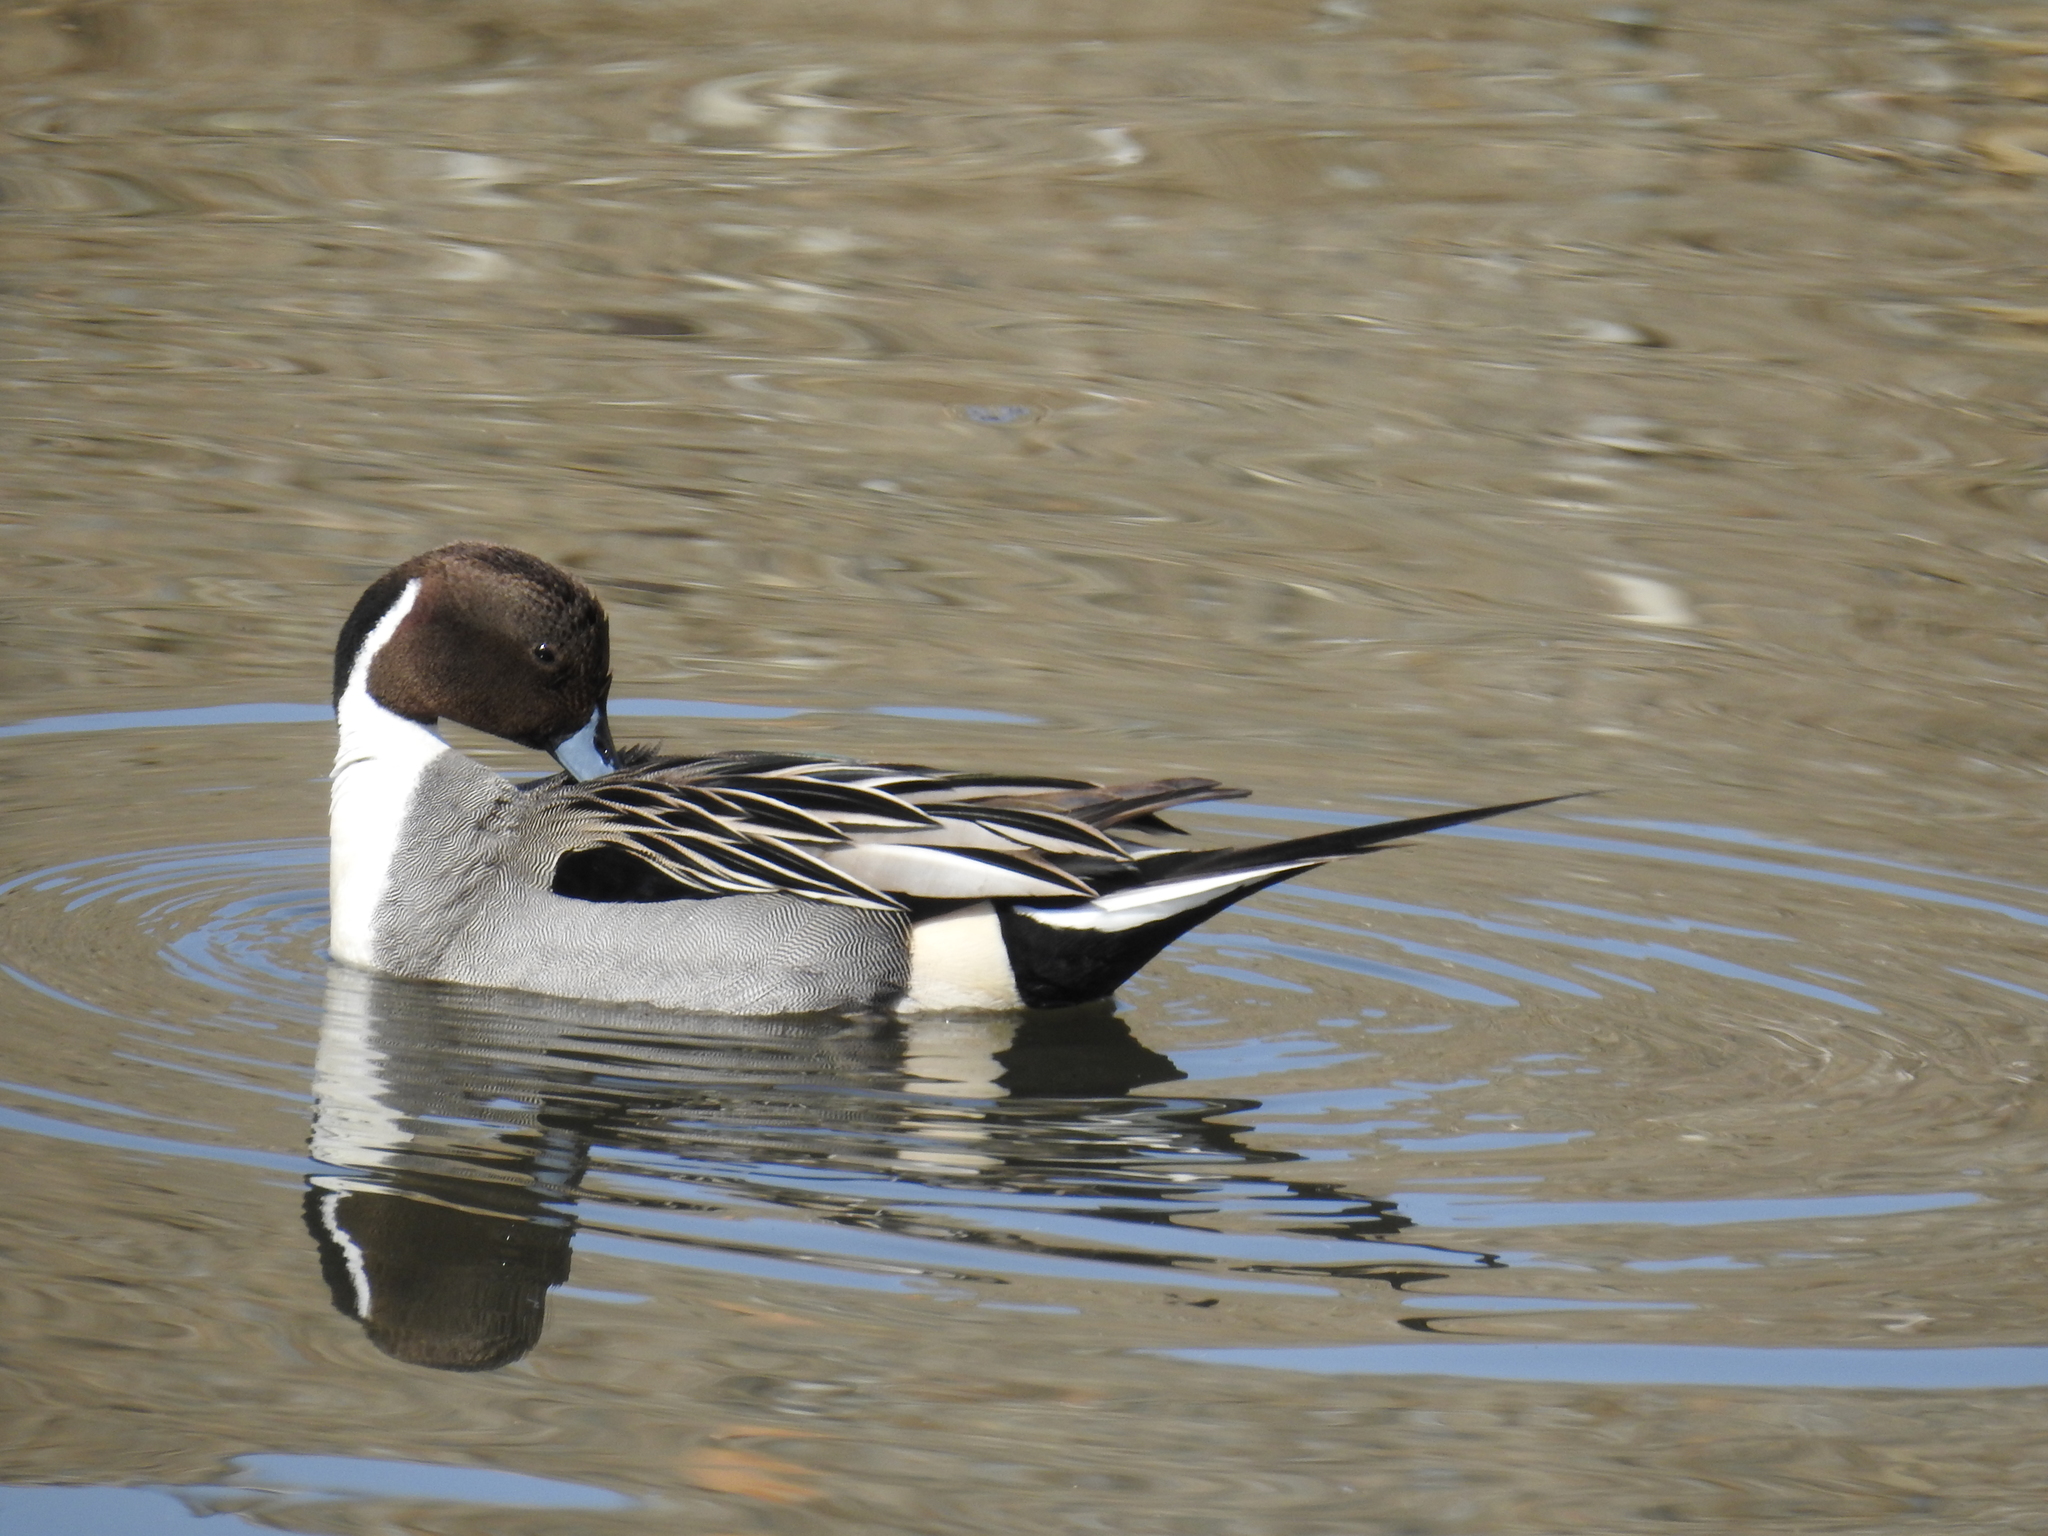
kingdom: Animalia
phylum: Chordata
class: Aves
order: Anseriformes
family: Anatidae
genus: Anas
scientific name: Anas acuta
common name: Northern pintail
